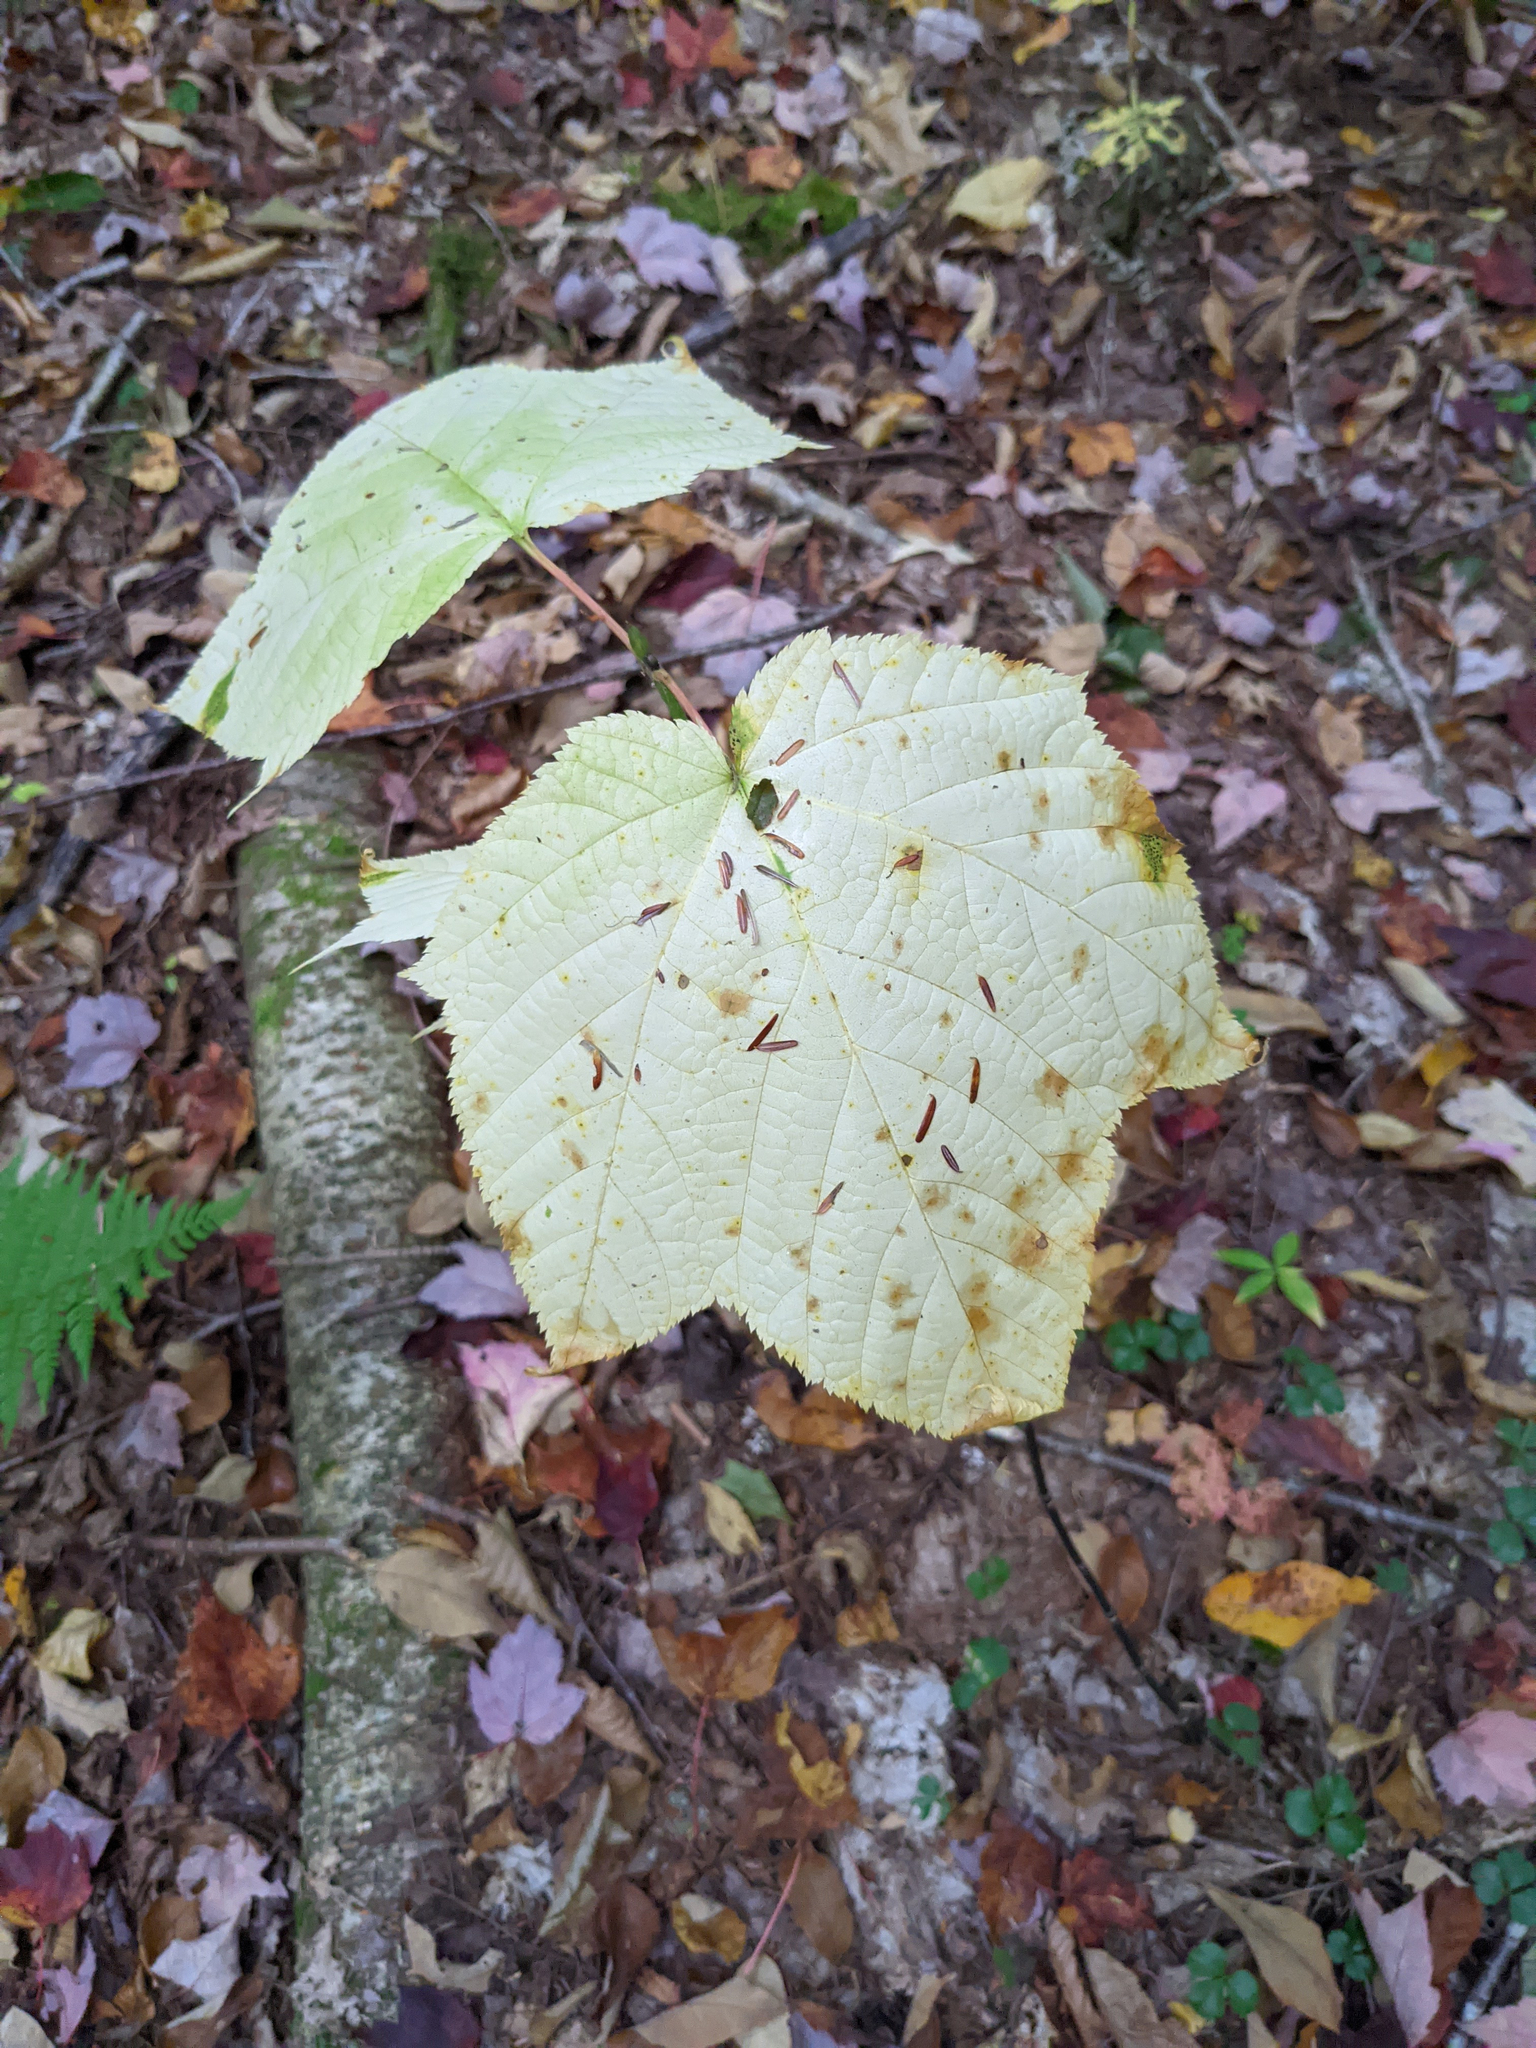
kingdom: Plantae
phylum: Tracheophyta
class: Magnoliopsida
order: Sapindales
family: Sapindaceae
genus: Acer
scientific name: Acer pensylvanicum
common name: Moosewood
